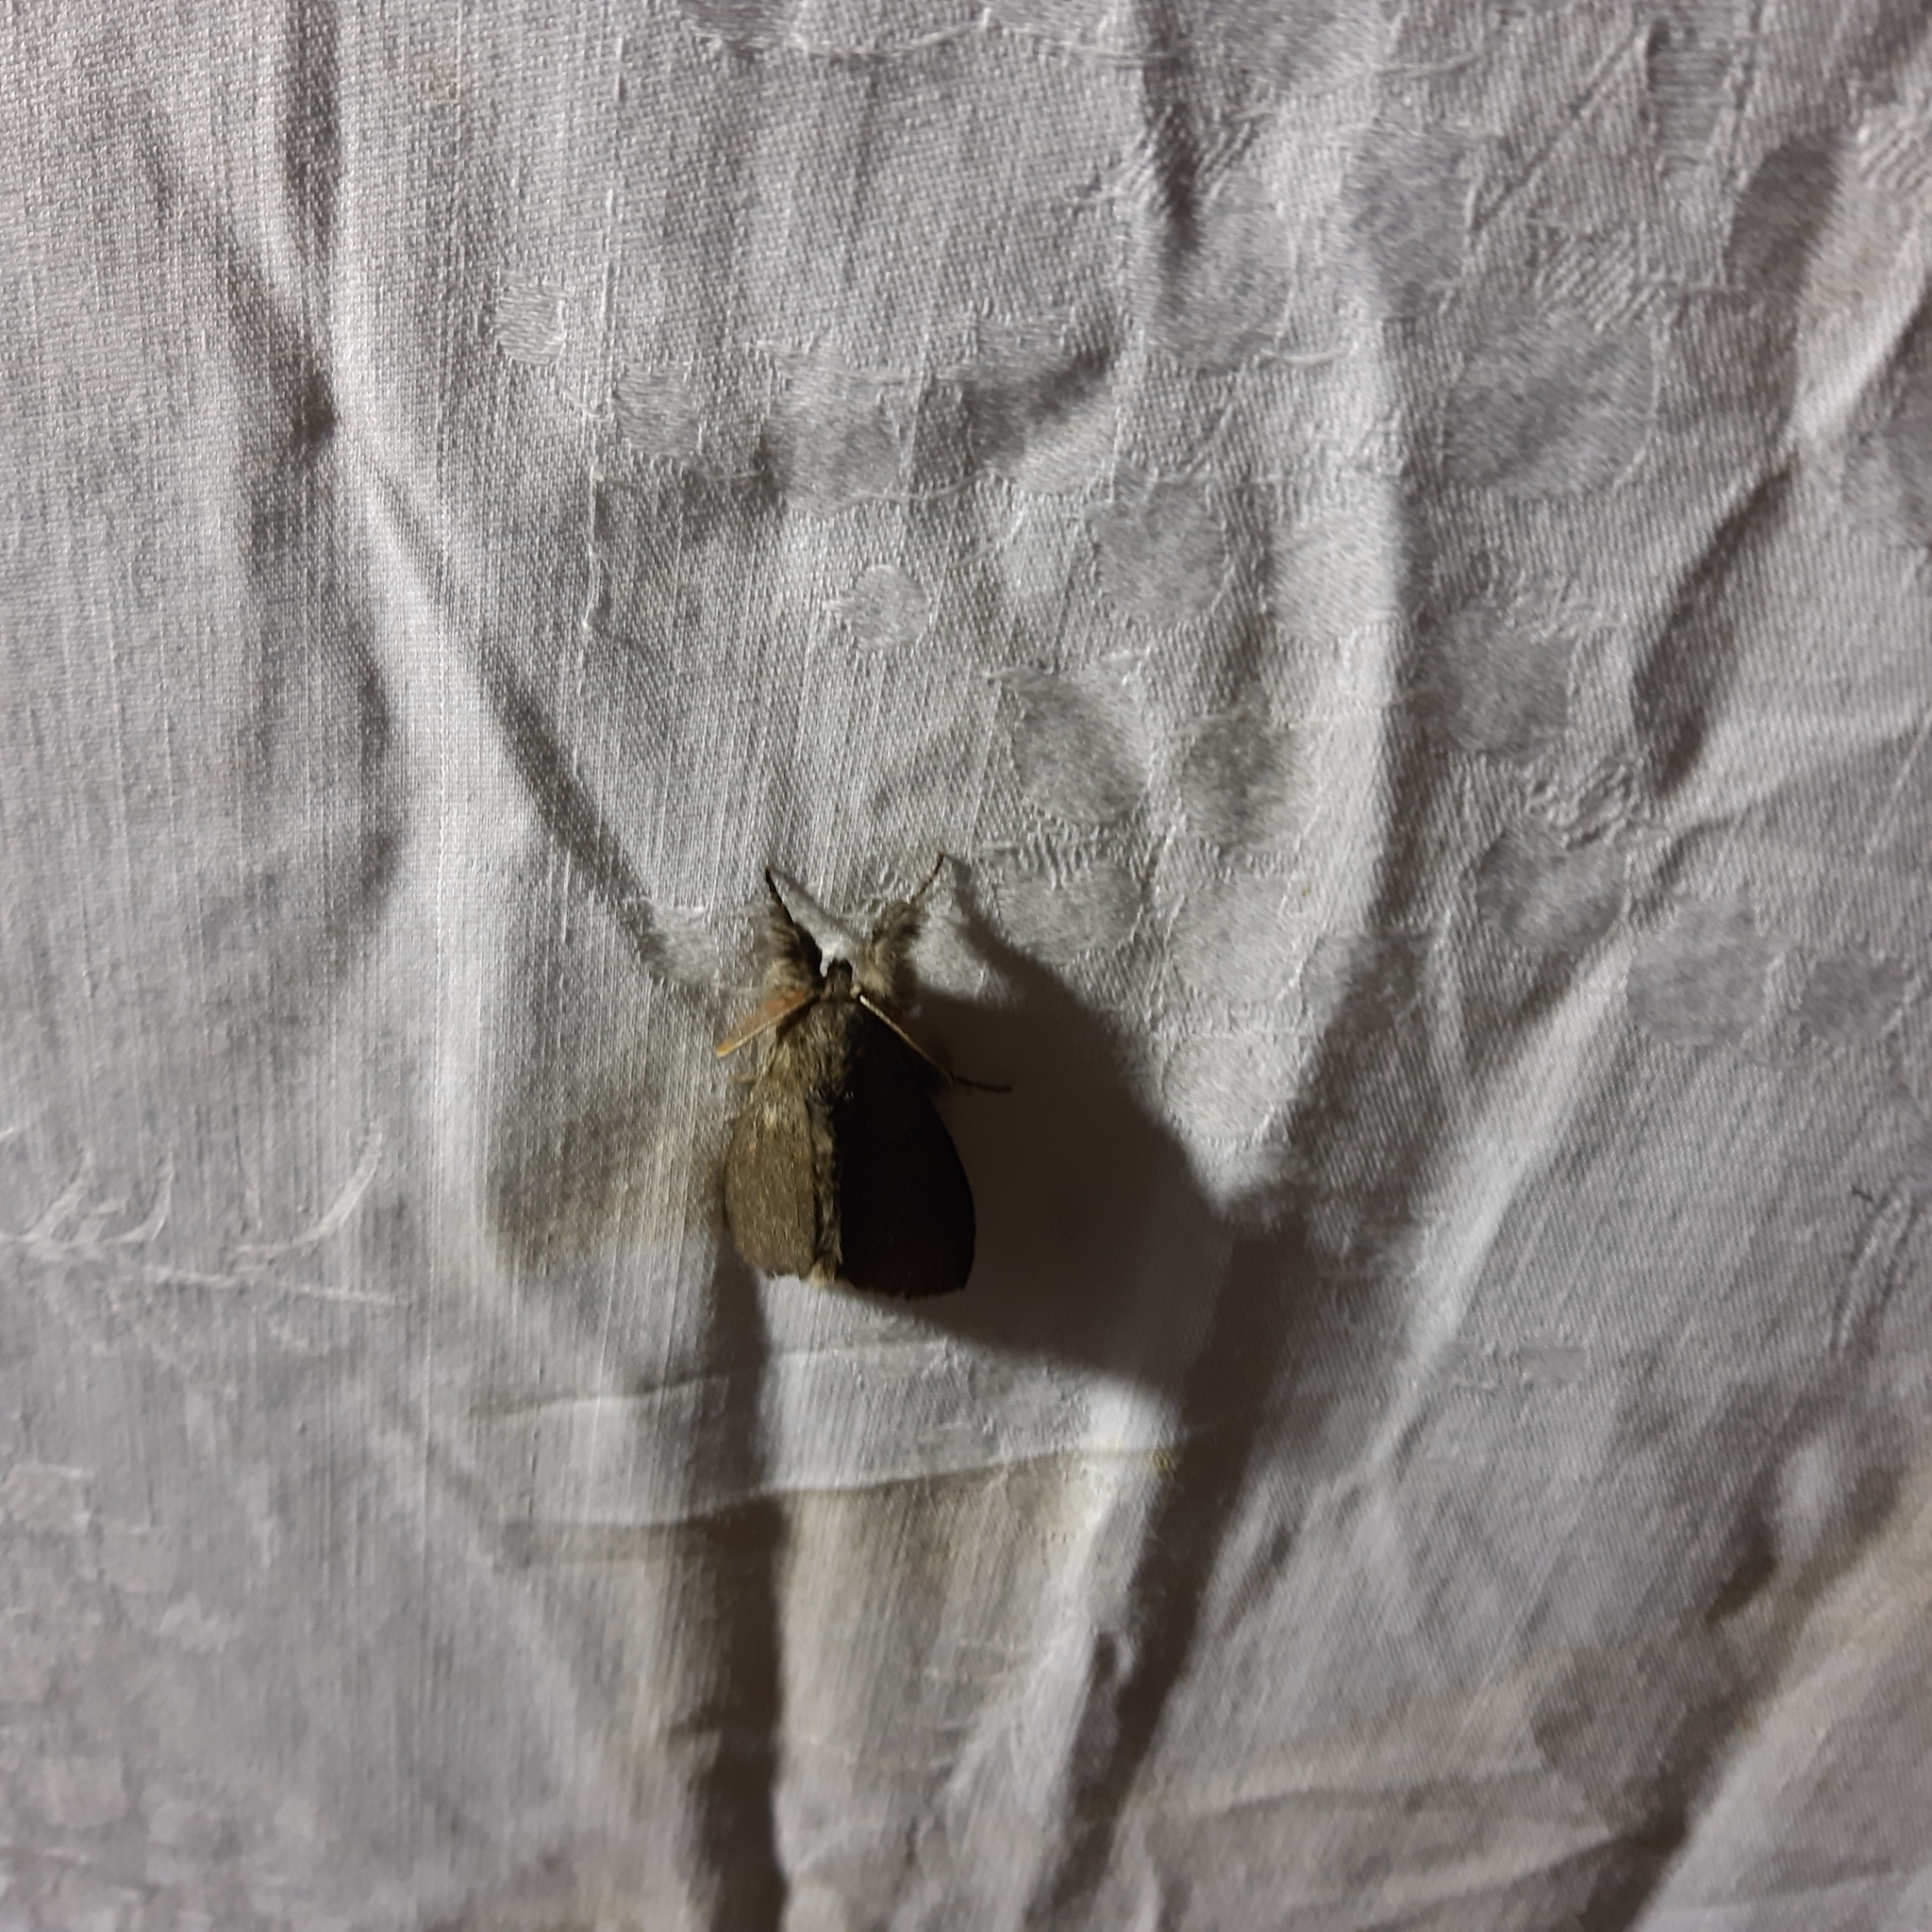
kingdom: Animalia
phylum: Arthropoda
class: Insecta
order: Lepidoptera
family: Erebidae
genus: Calliteara
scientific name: Calliteara pudibunda
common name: Pale tussock
